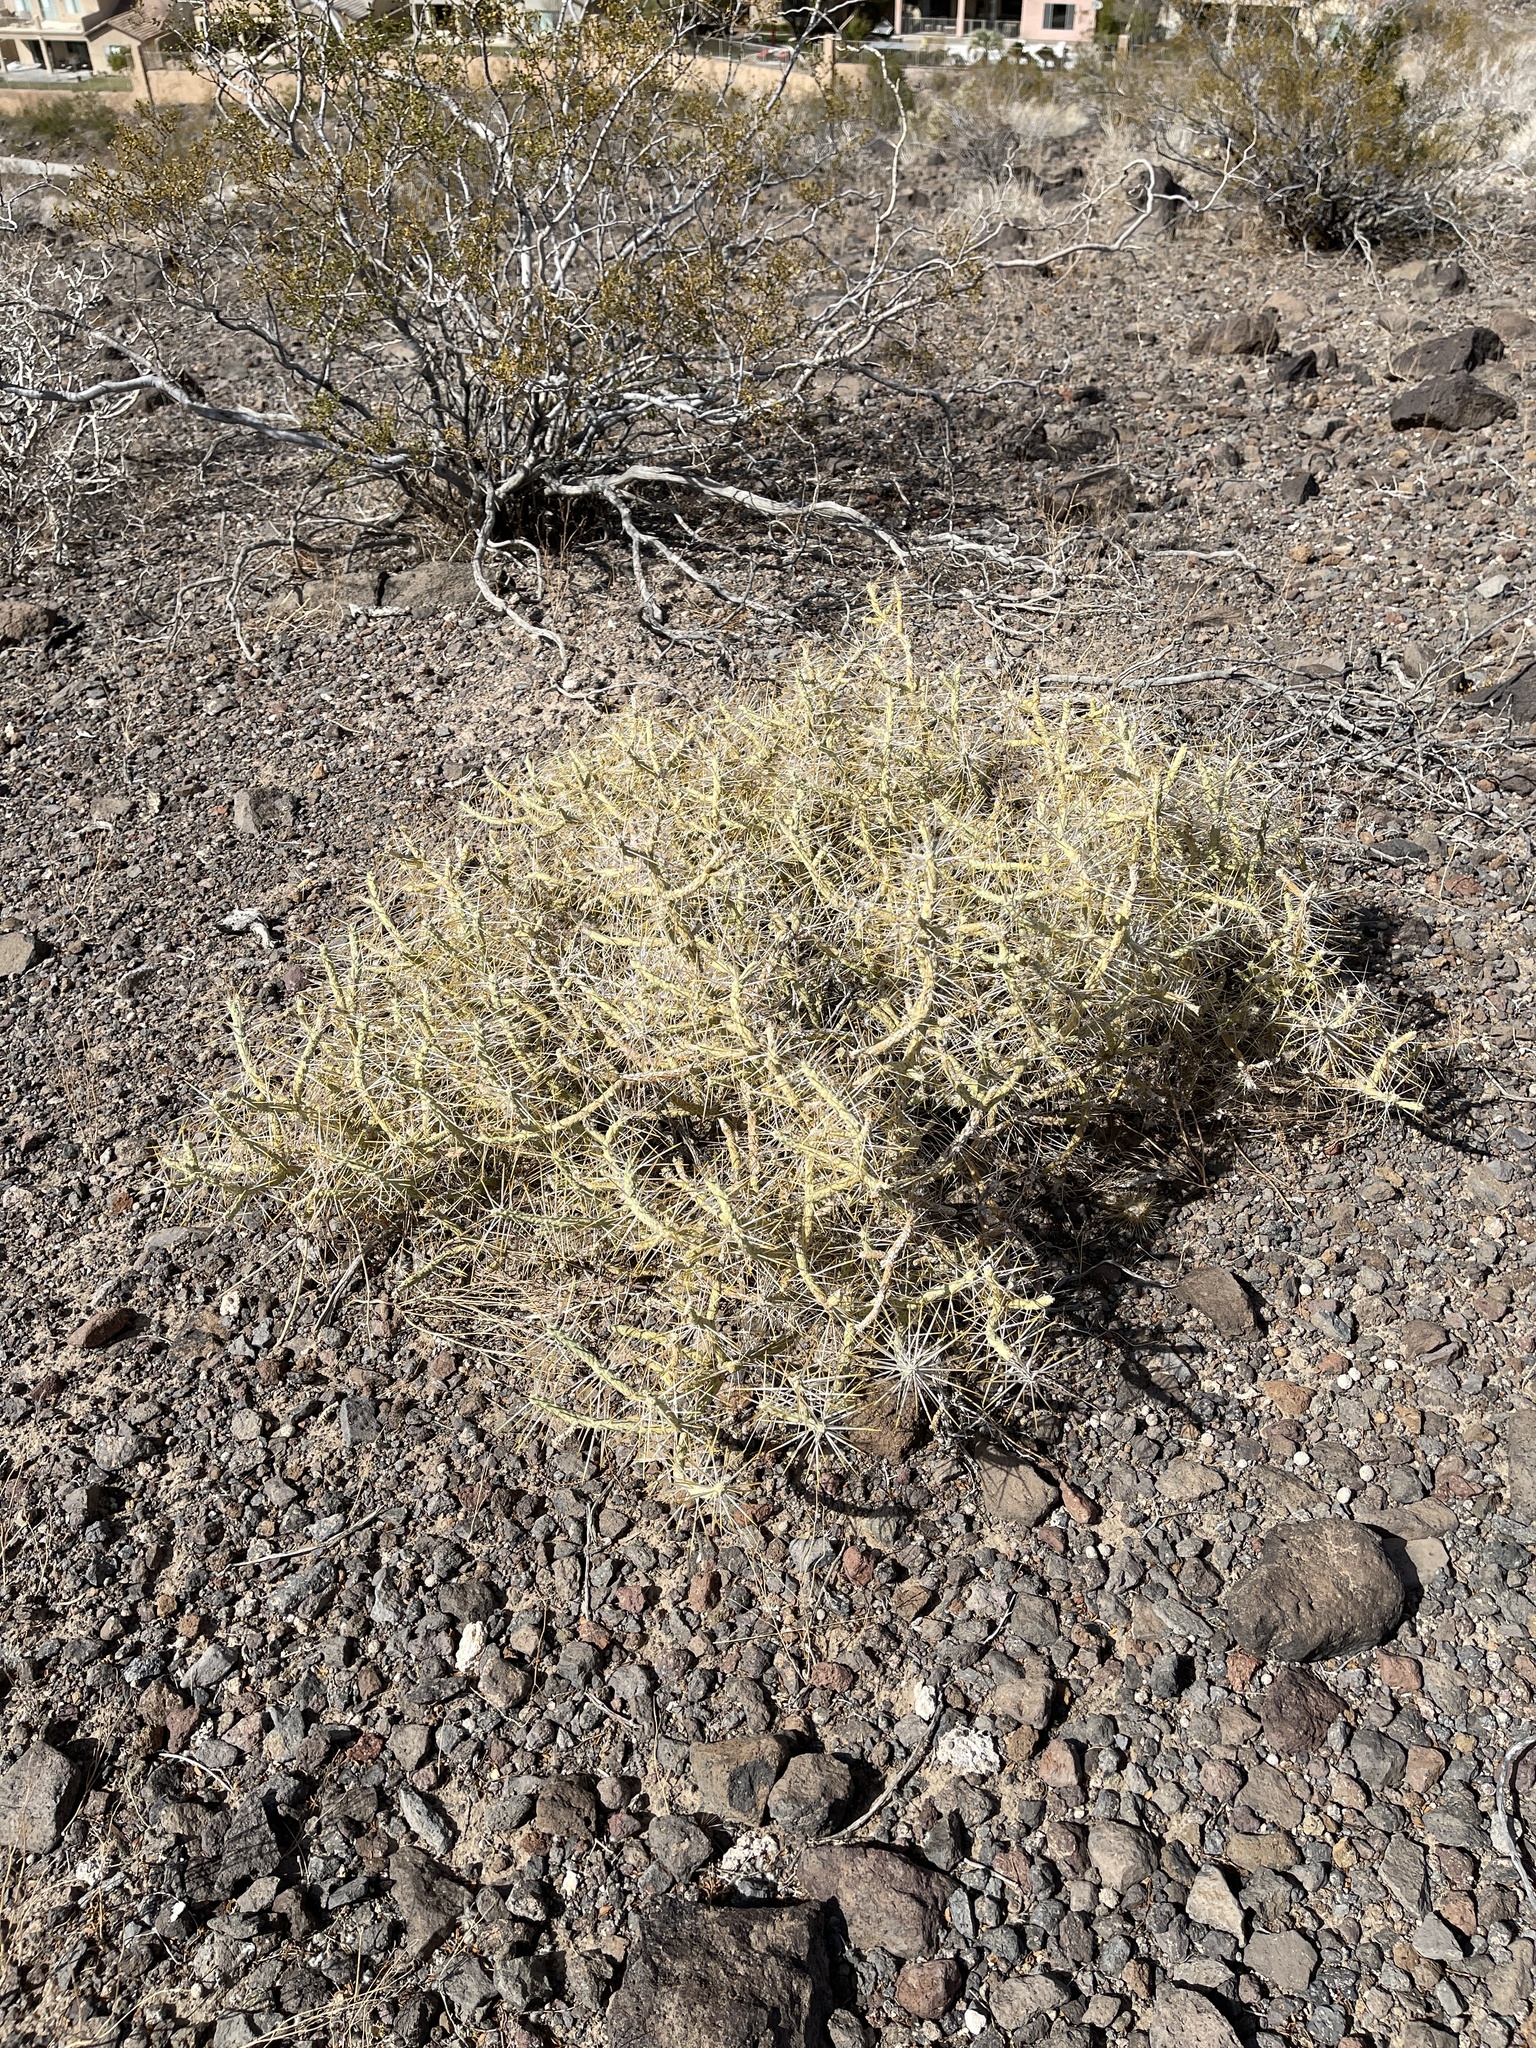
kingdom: Plantae
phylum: Tracheophyta
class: Magnoliopsida
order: Caryophyllales
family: Cactaceae
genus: Cylindropuntia
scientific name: Cylindropuntia ramosissima
